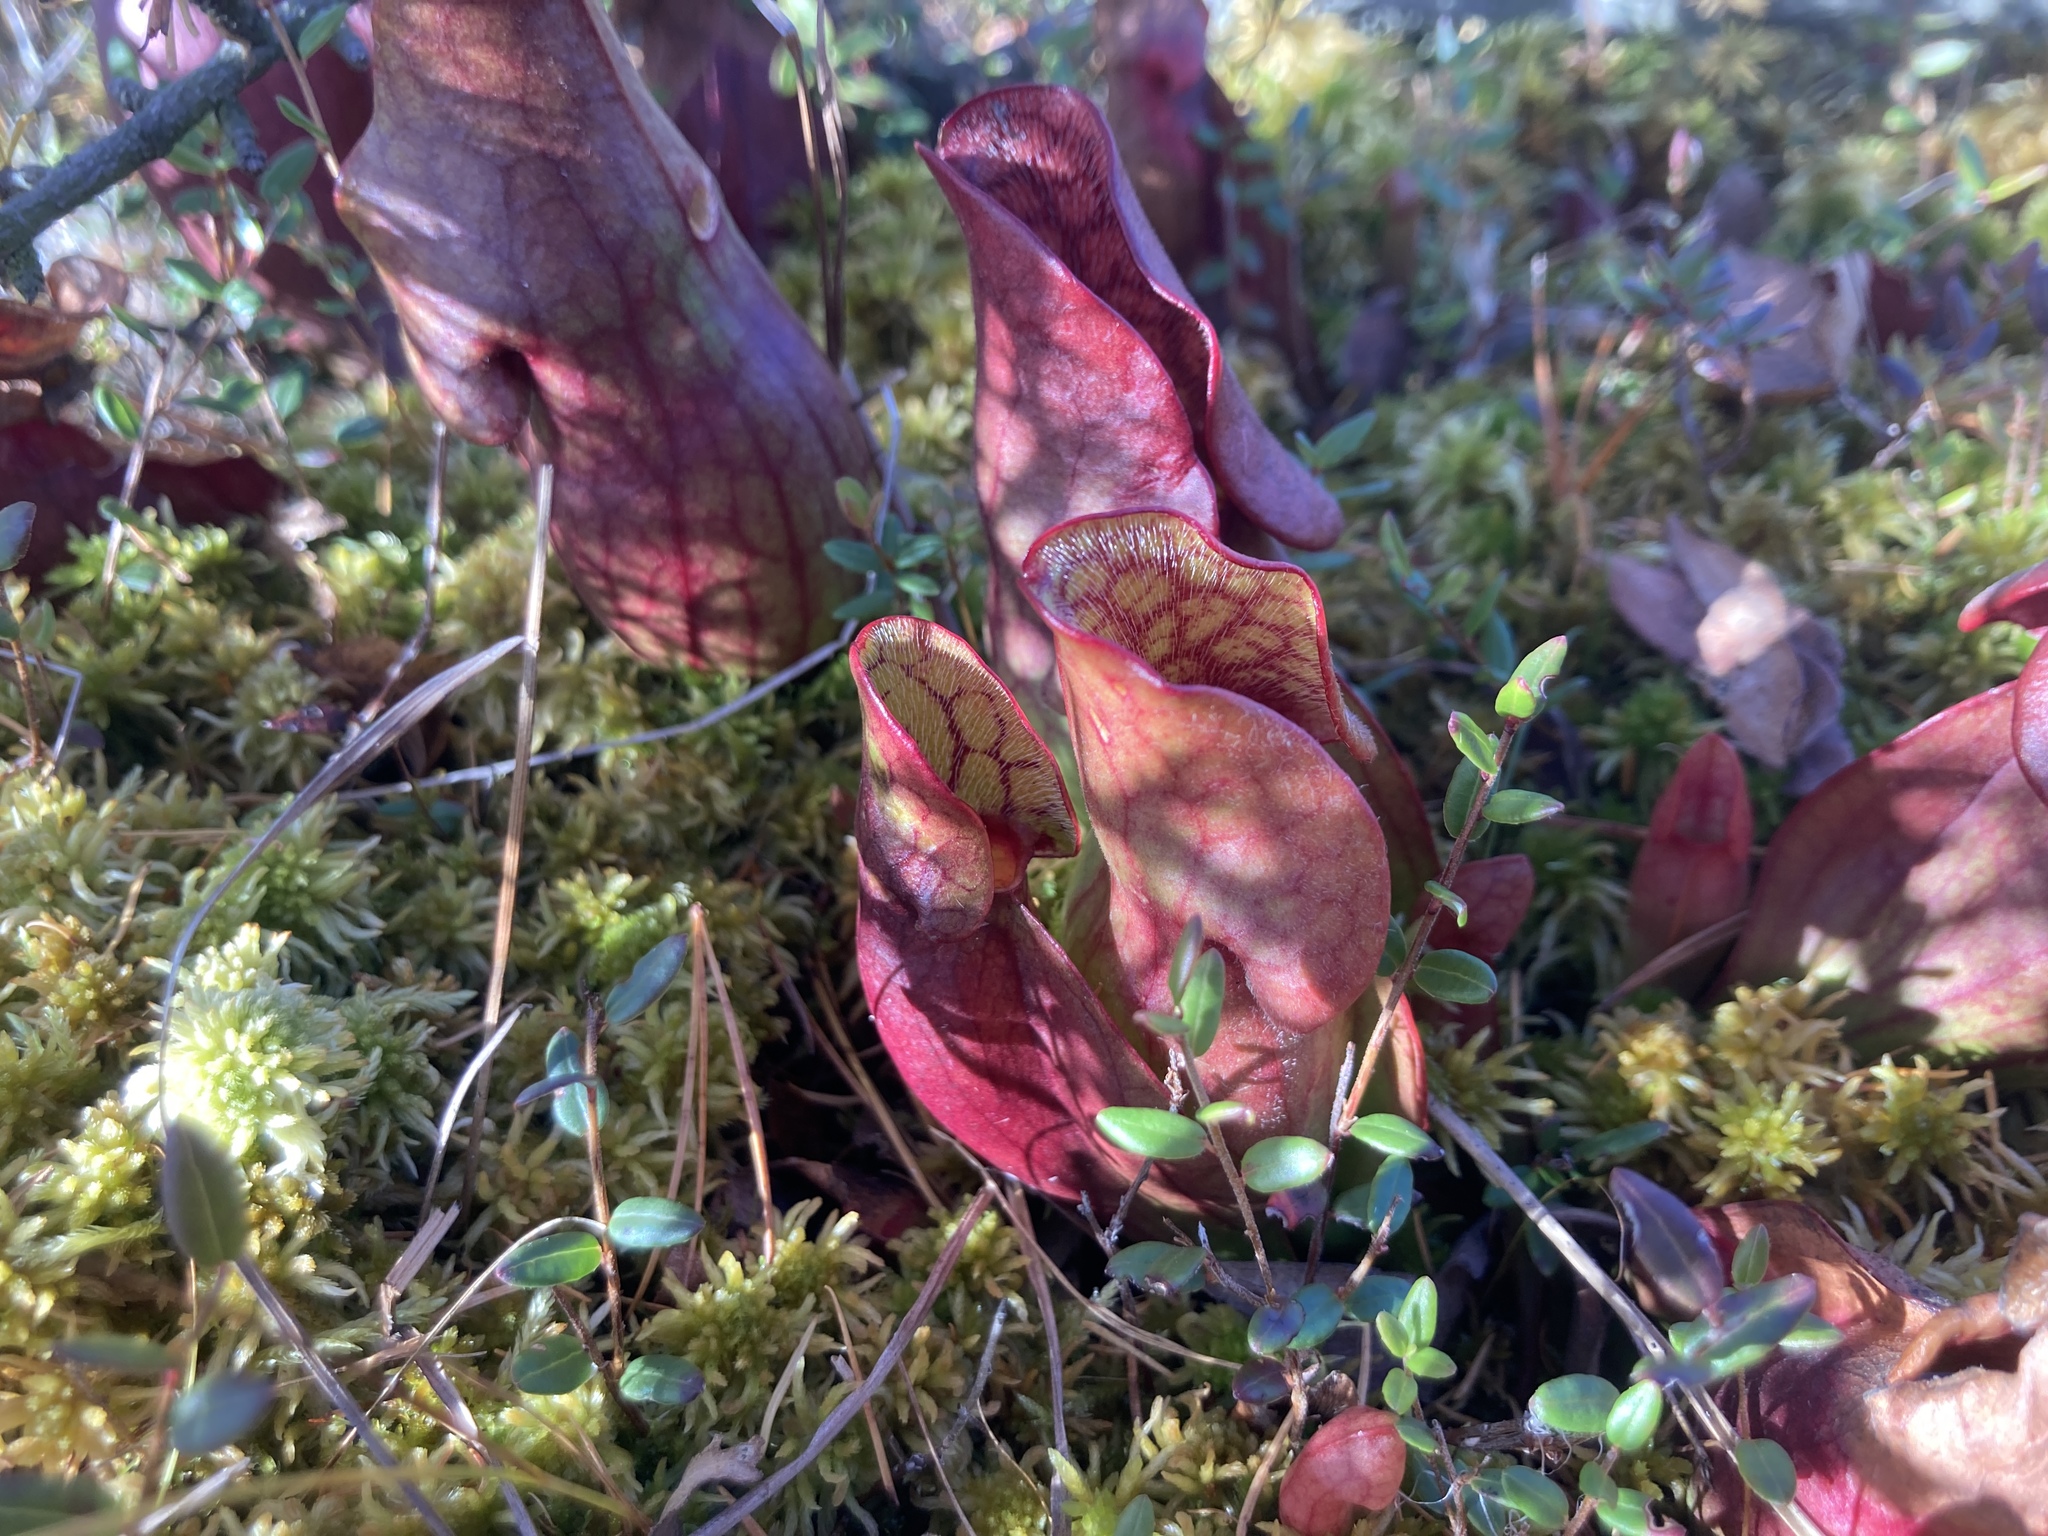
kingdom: Plantae
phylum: Tracheophyta
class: Magnoliopsida
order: Ericales
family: Sarraceniaceae
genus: Sarracenia
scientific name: Sarracenia purpurea
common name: Pitcherplant
